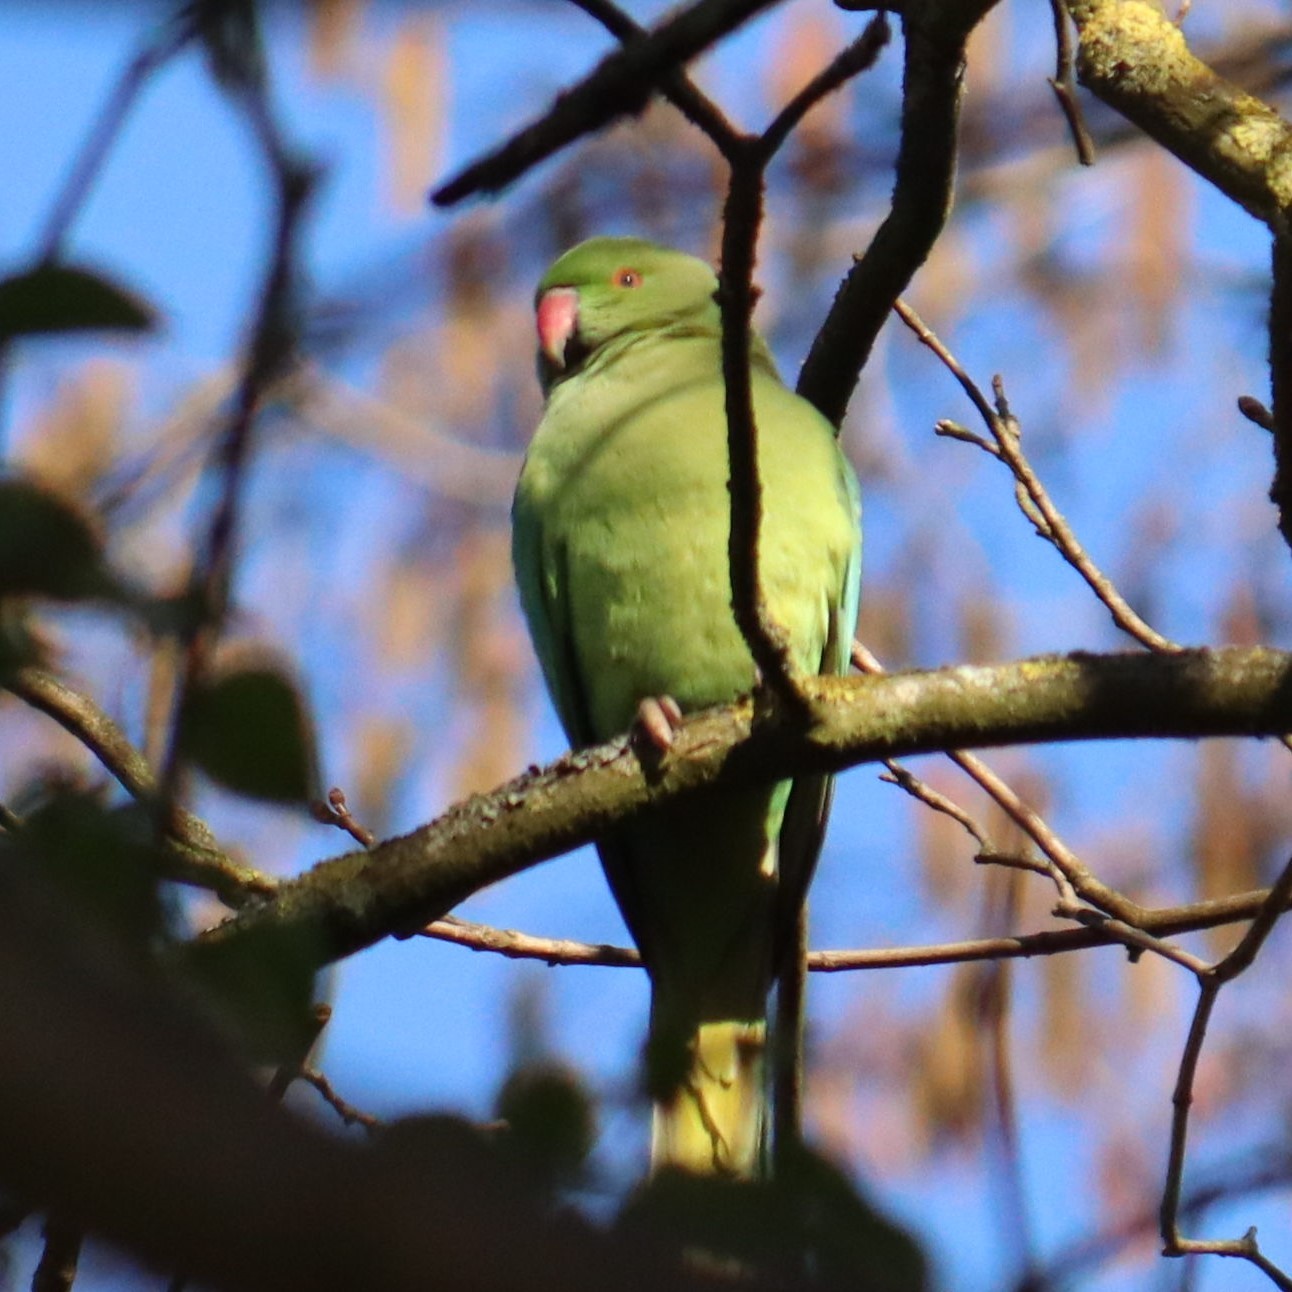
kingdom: Animalia
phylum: Chordata
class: Aves
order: Psittaciformes
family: Psittacidae
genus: Psittacula
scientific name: Psittacula krameri
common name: Rose-ringed parakeet
